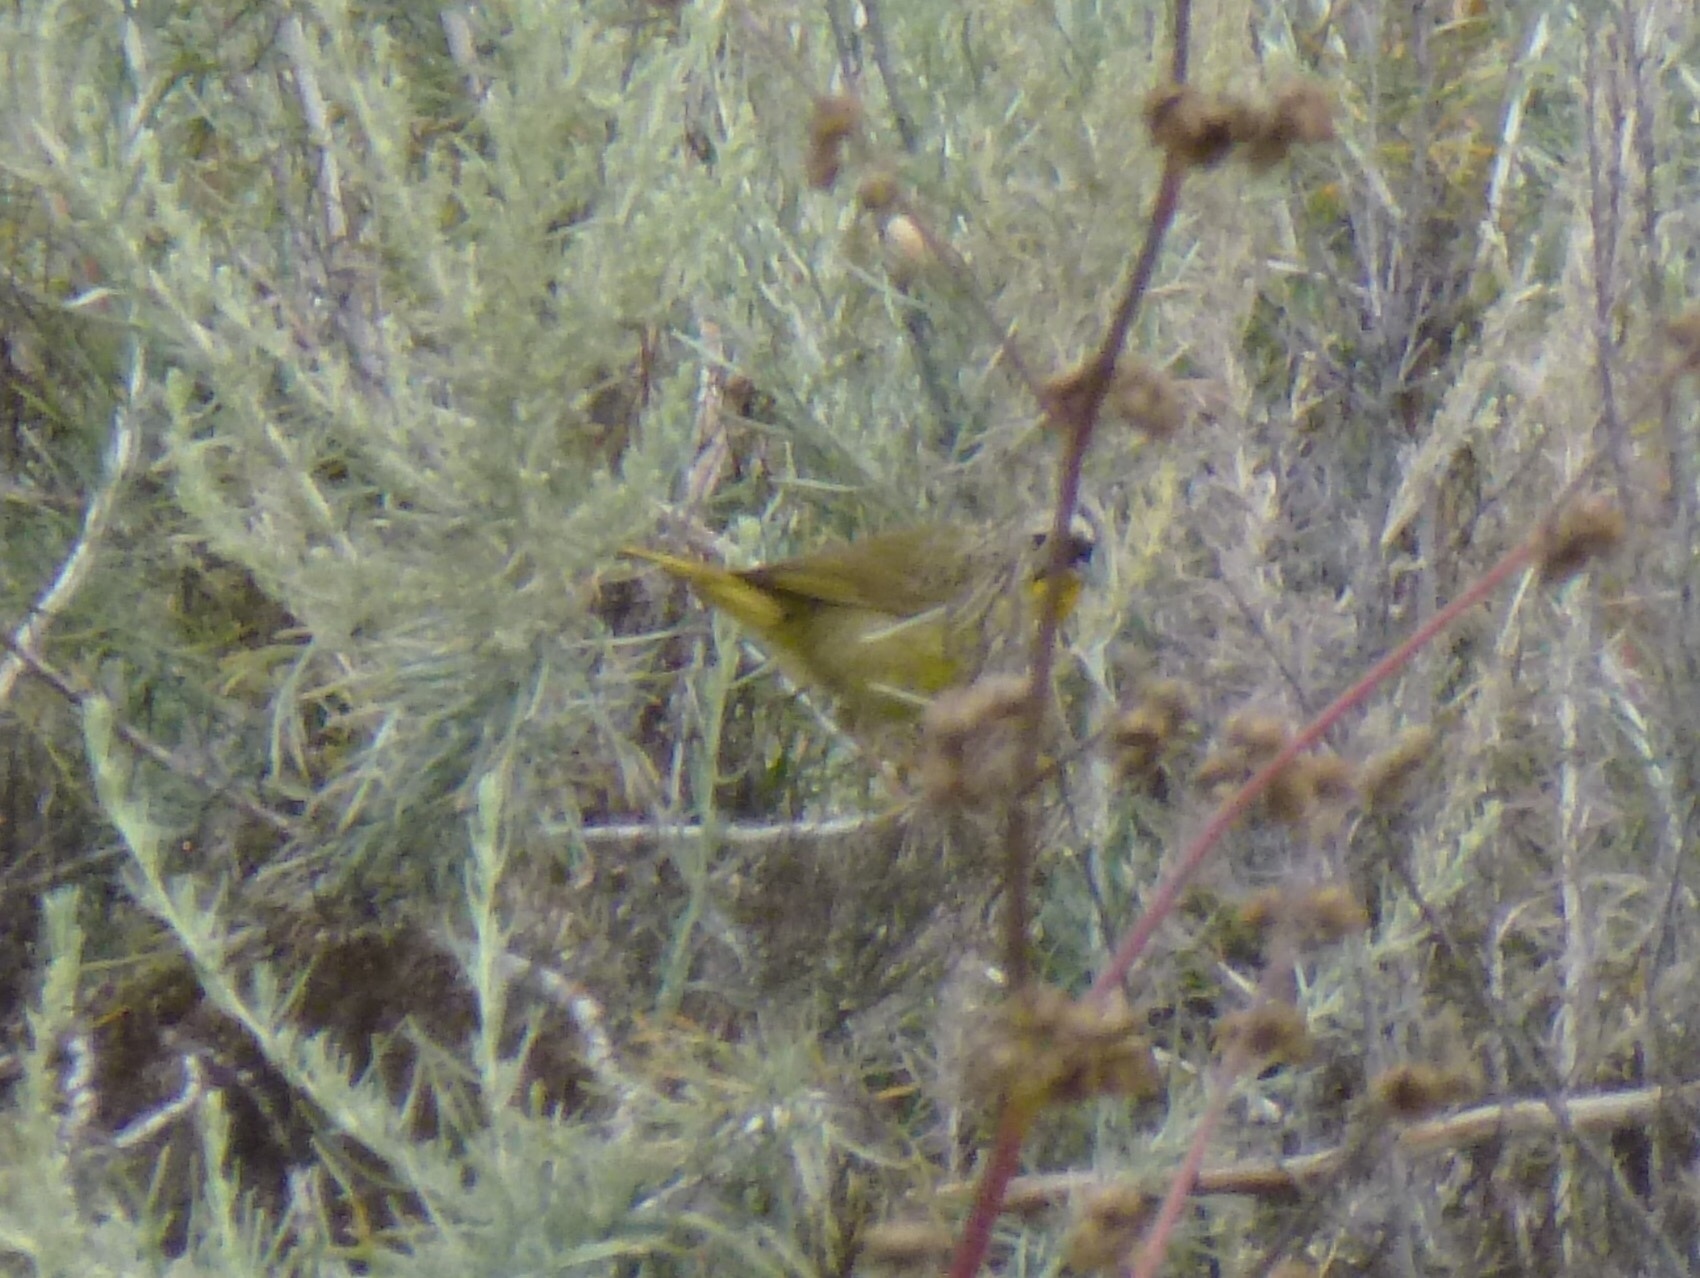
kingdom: Animalia
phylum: Chordata
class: Aves
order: Passeriformes
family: Parulidae
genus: Geothlypis
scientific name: Geothlypis trichas
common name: Common yellowthroat
